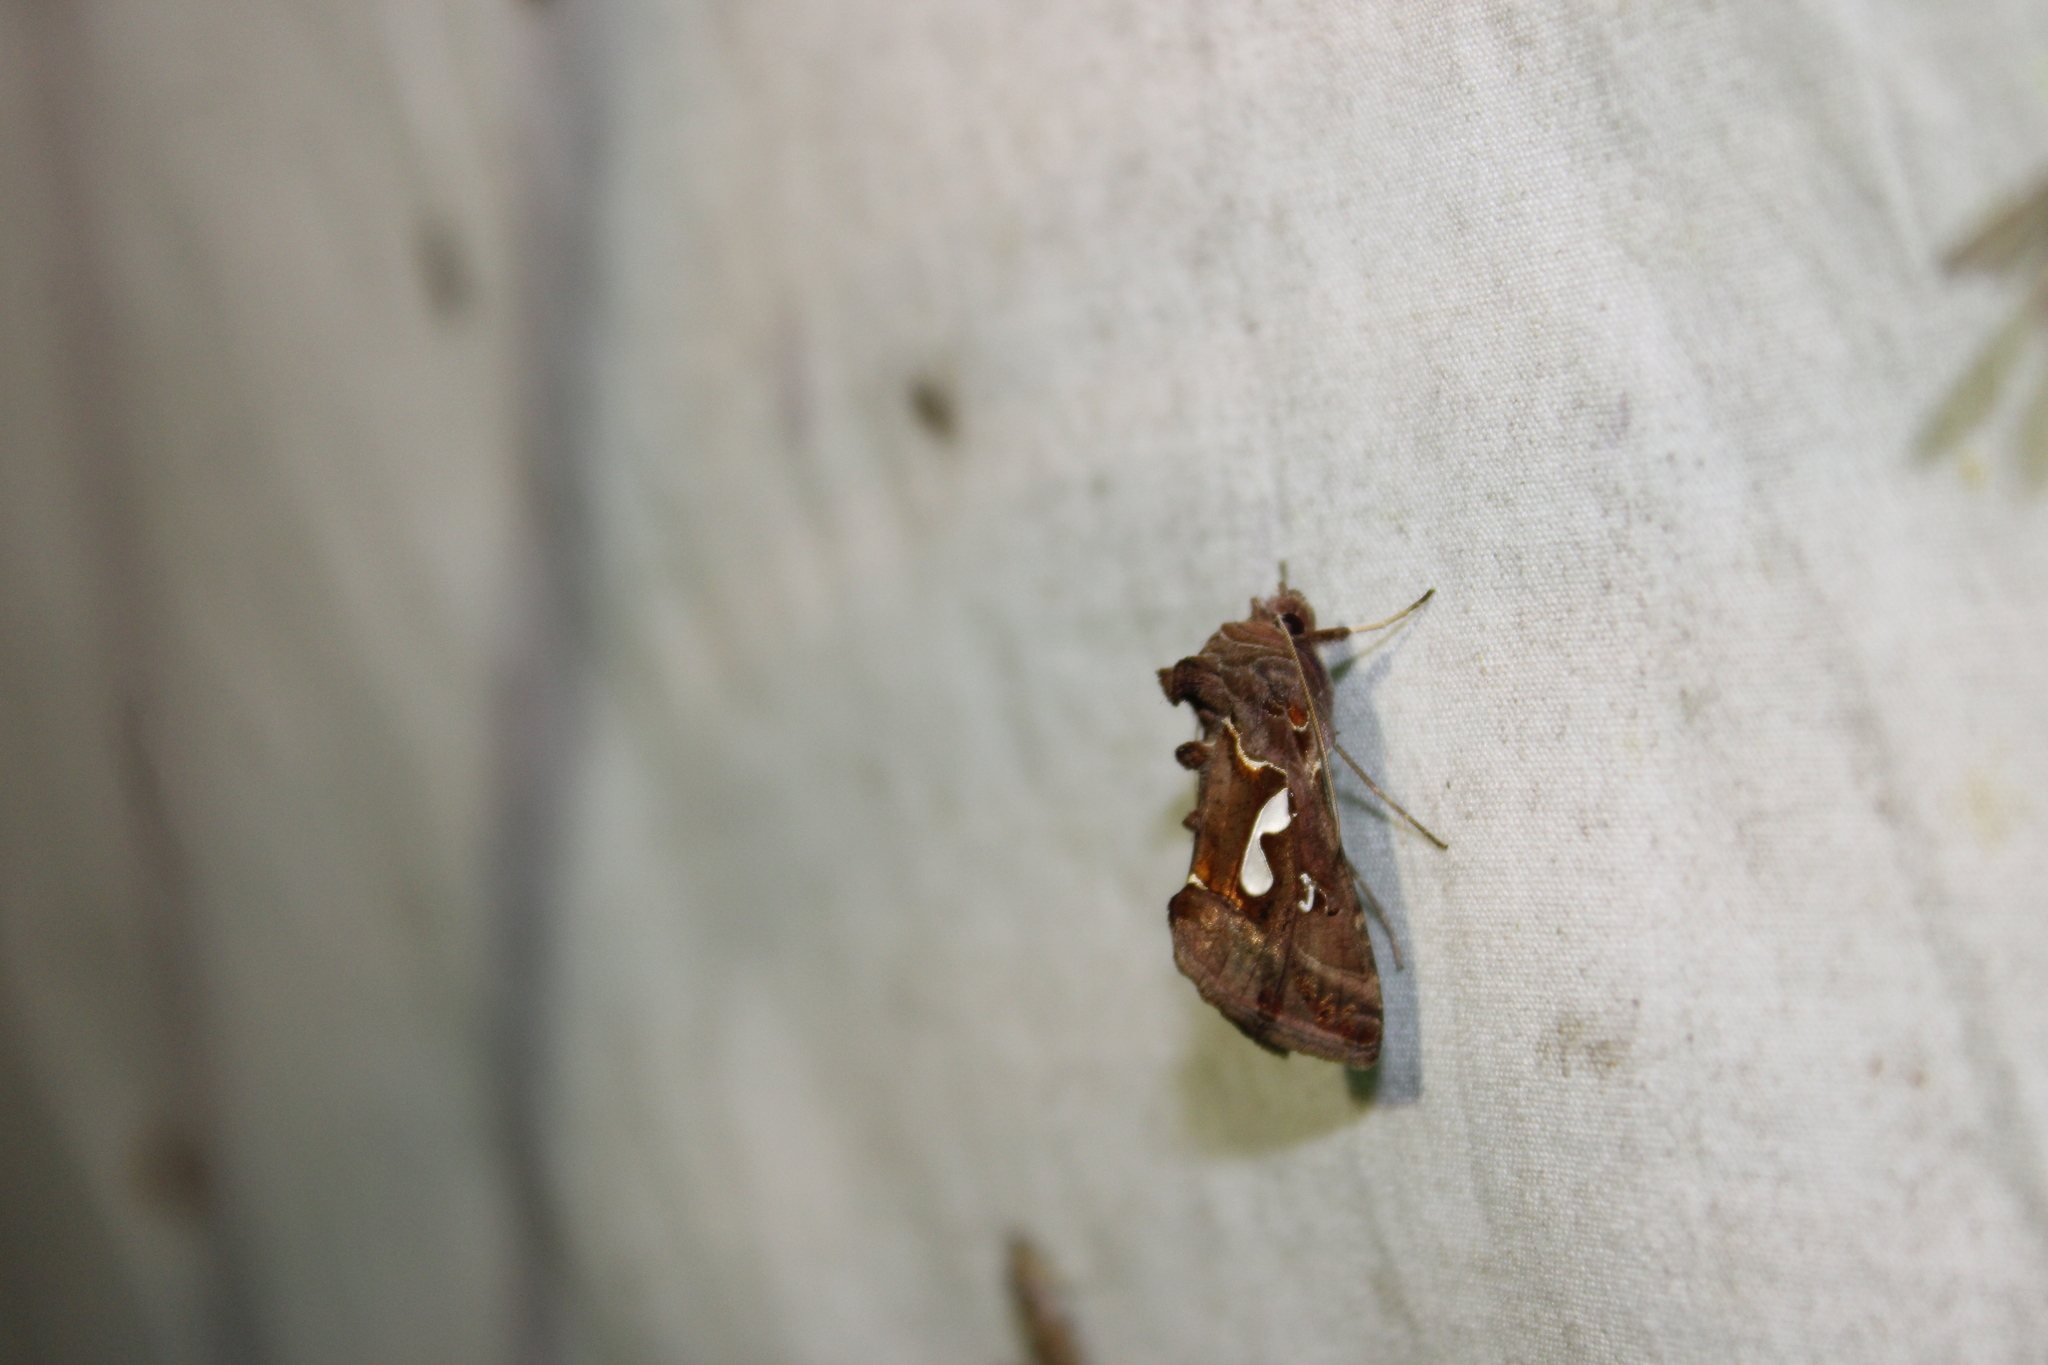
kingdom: Animalia
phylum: Arthropoda
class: Insecta
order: Lepidoptera
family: Noctuidae
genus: Megalographa
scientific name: Megalographa biloba
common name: Cutworm
